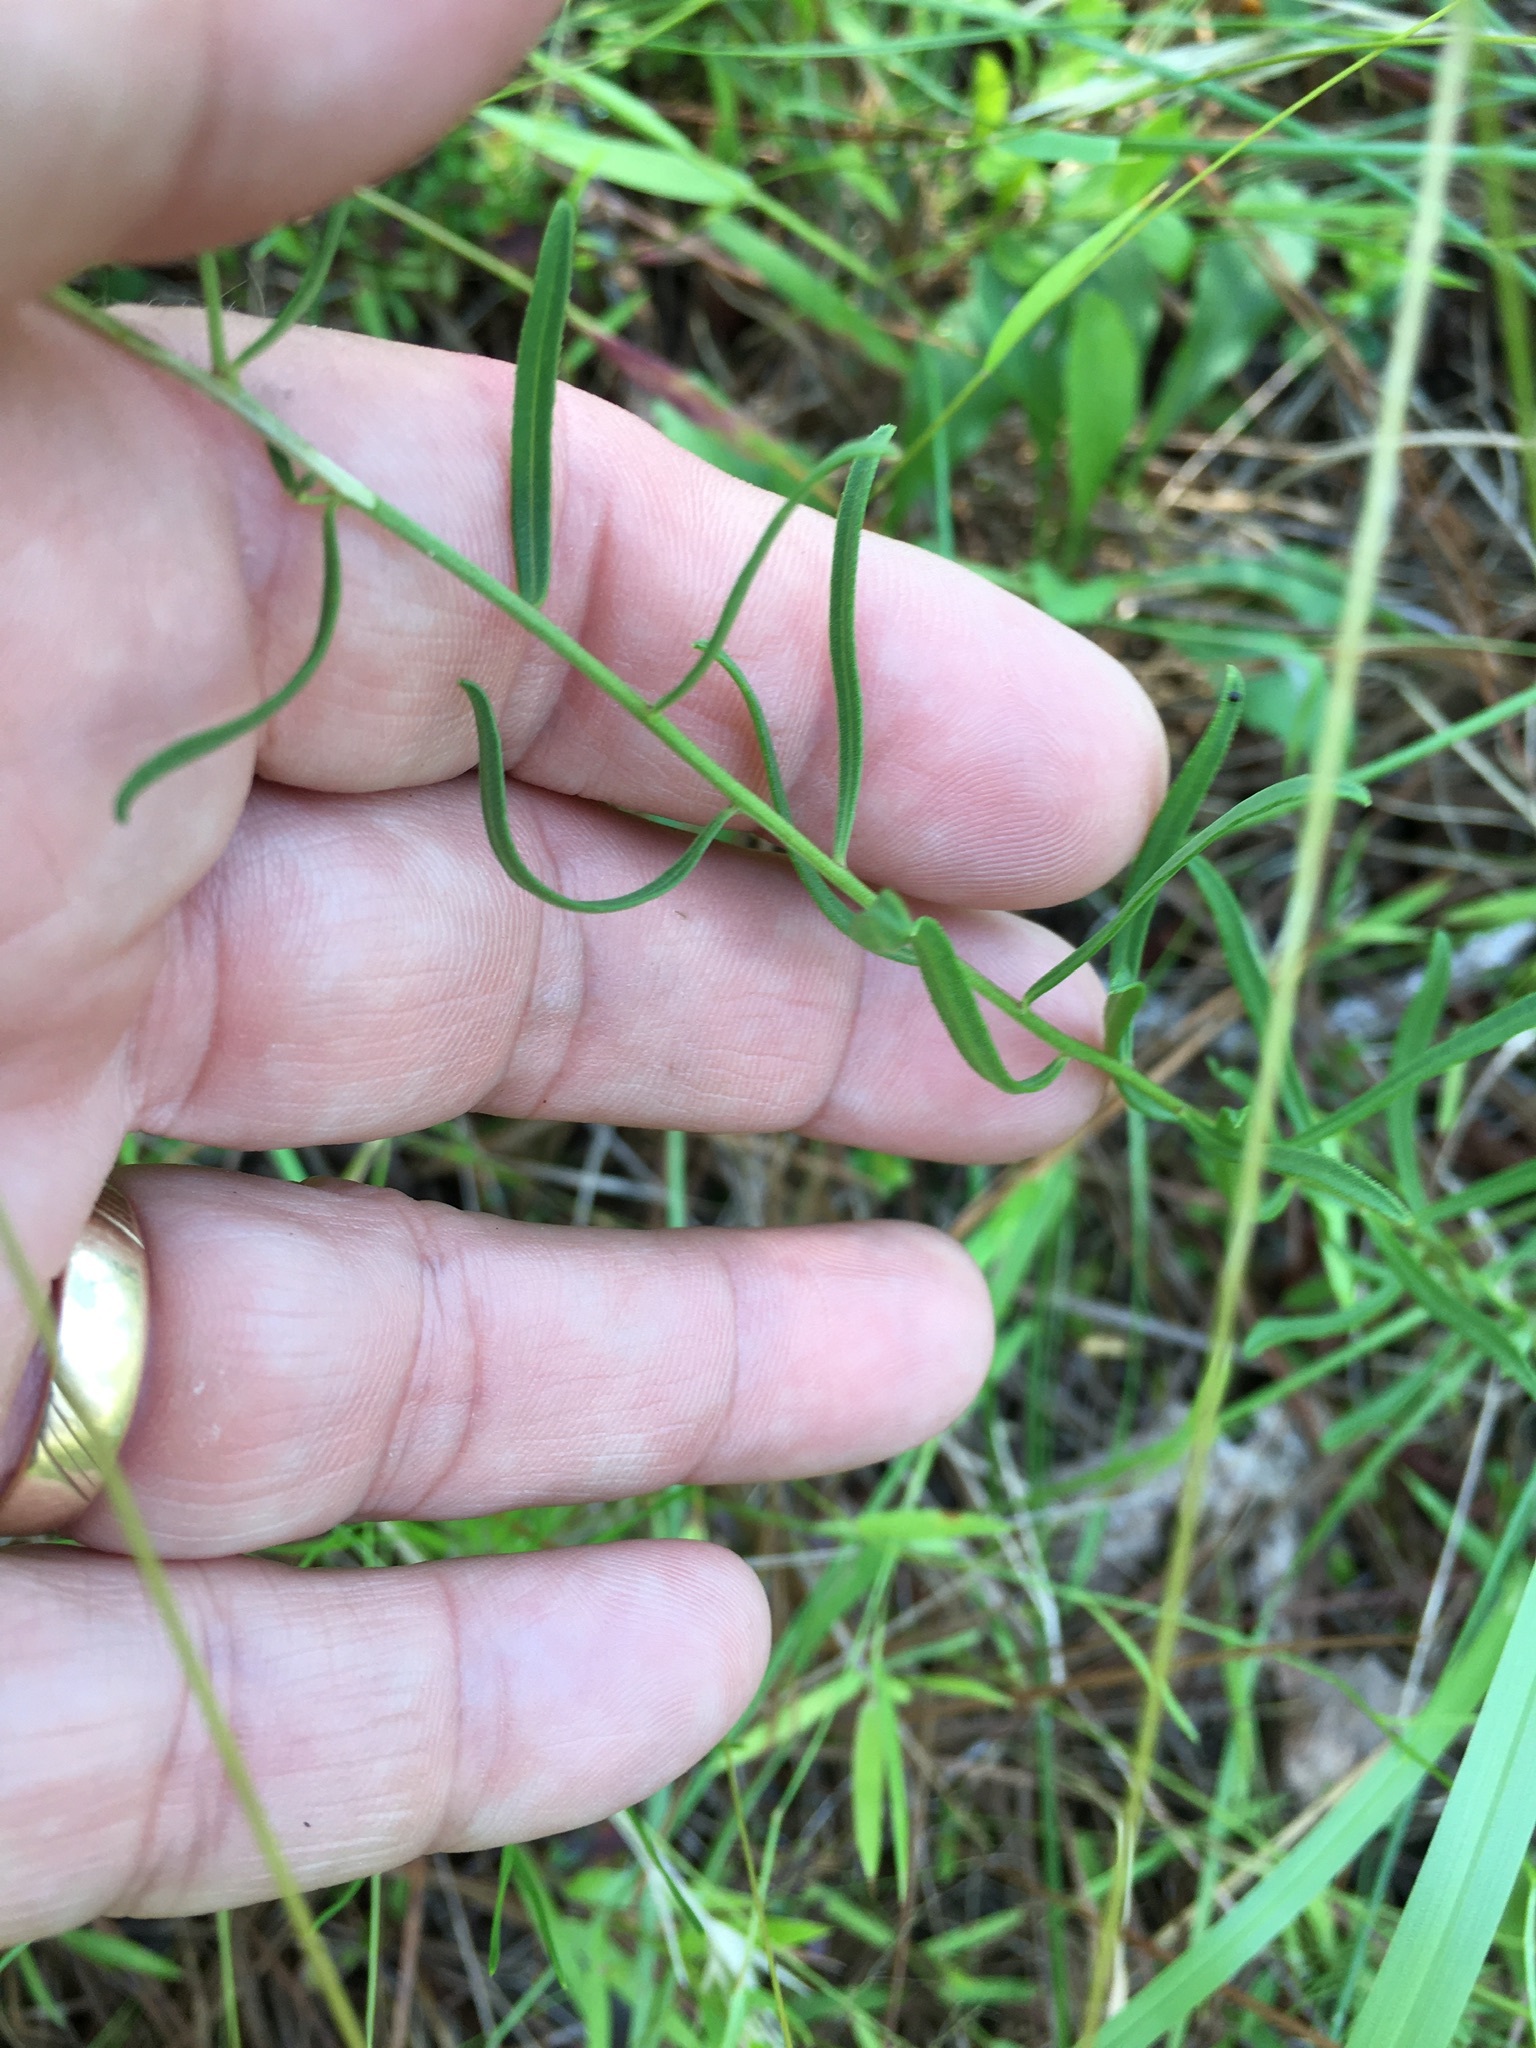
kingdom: Plantae
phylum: Tracheophyta
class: Magnoliopsida
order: Asterales
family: Asteraceae
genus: Sericocarpus
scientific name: Sericocarpus linifolius
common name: Narrow-leaf aster
